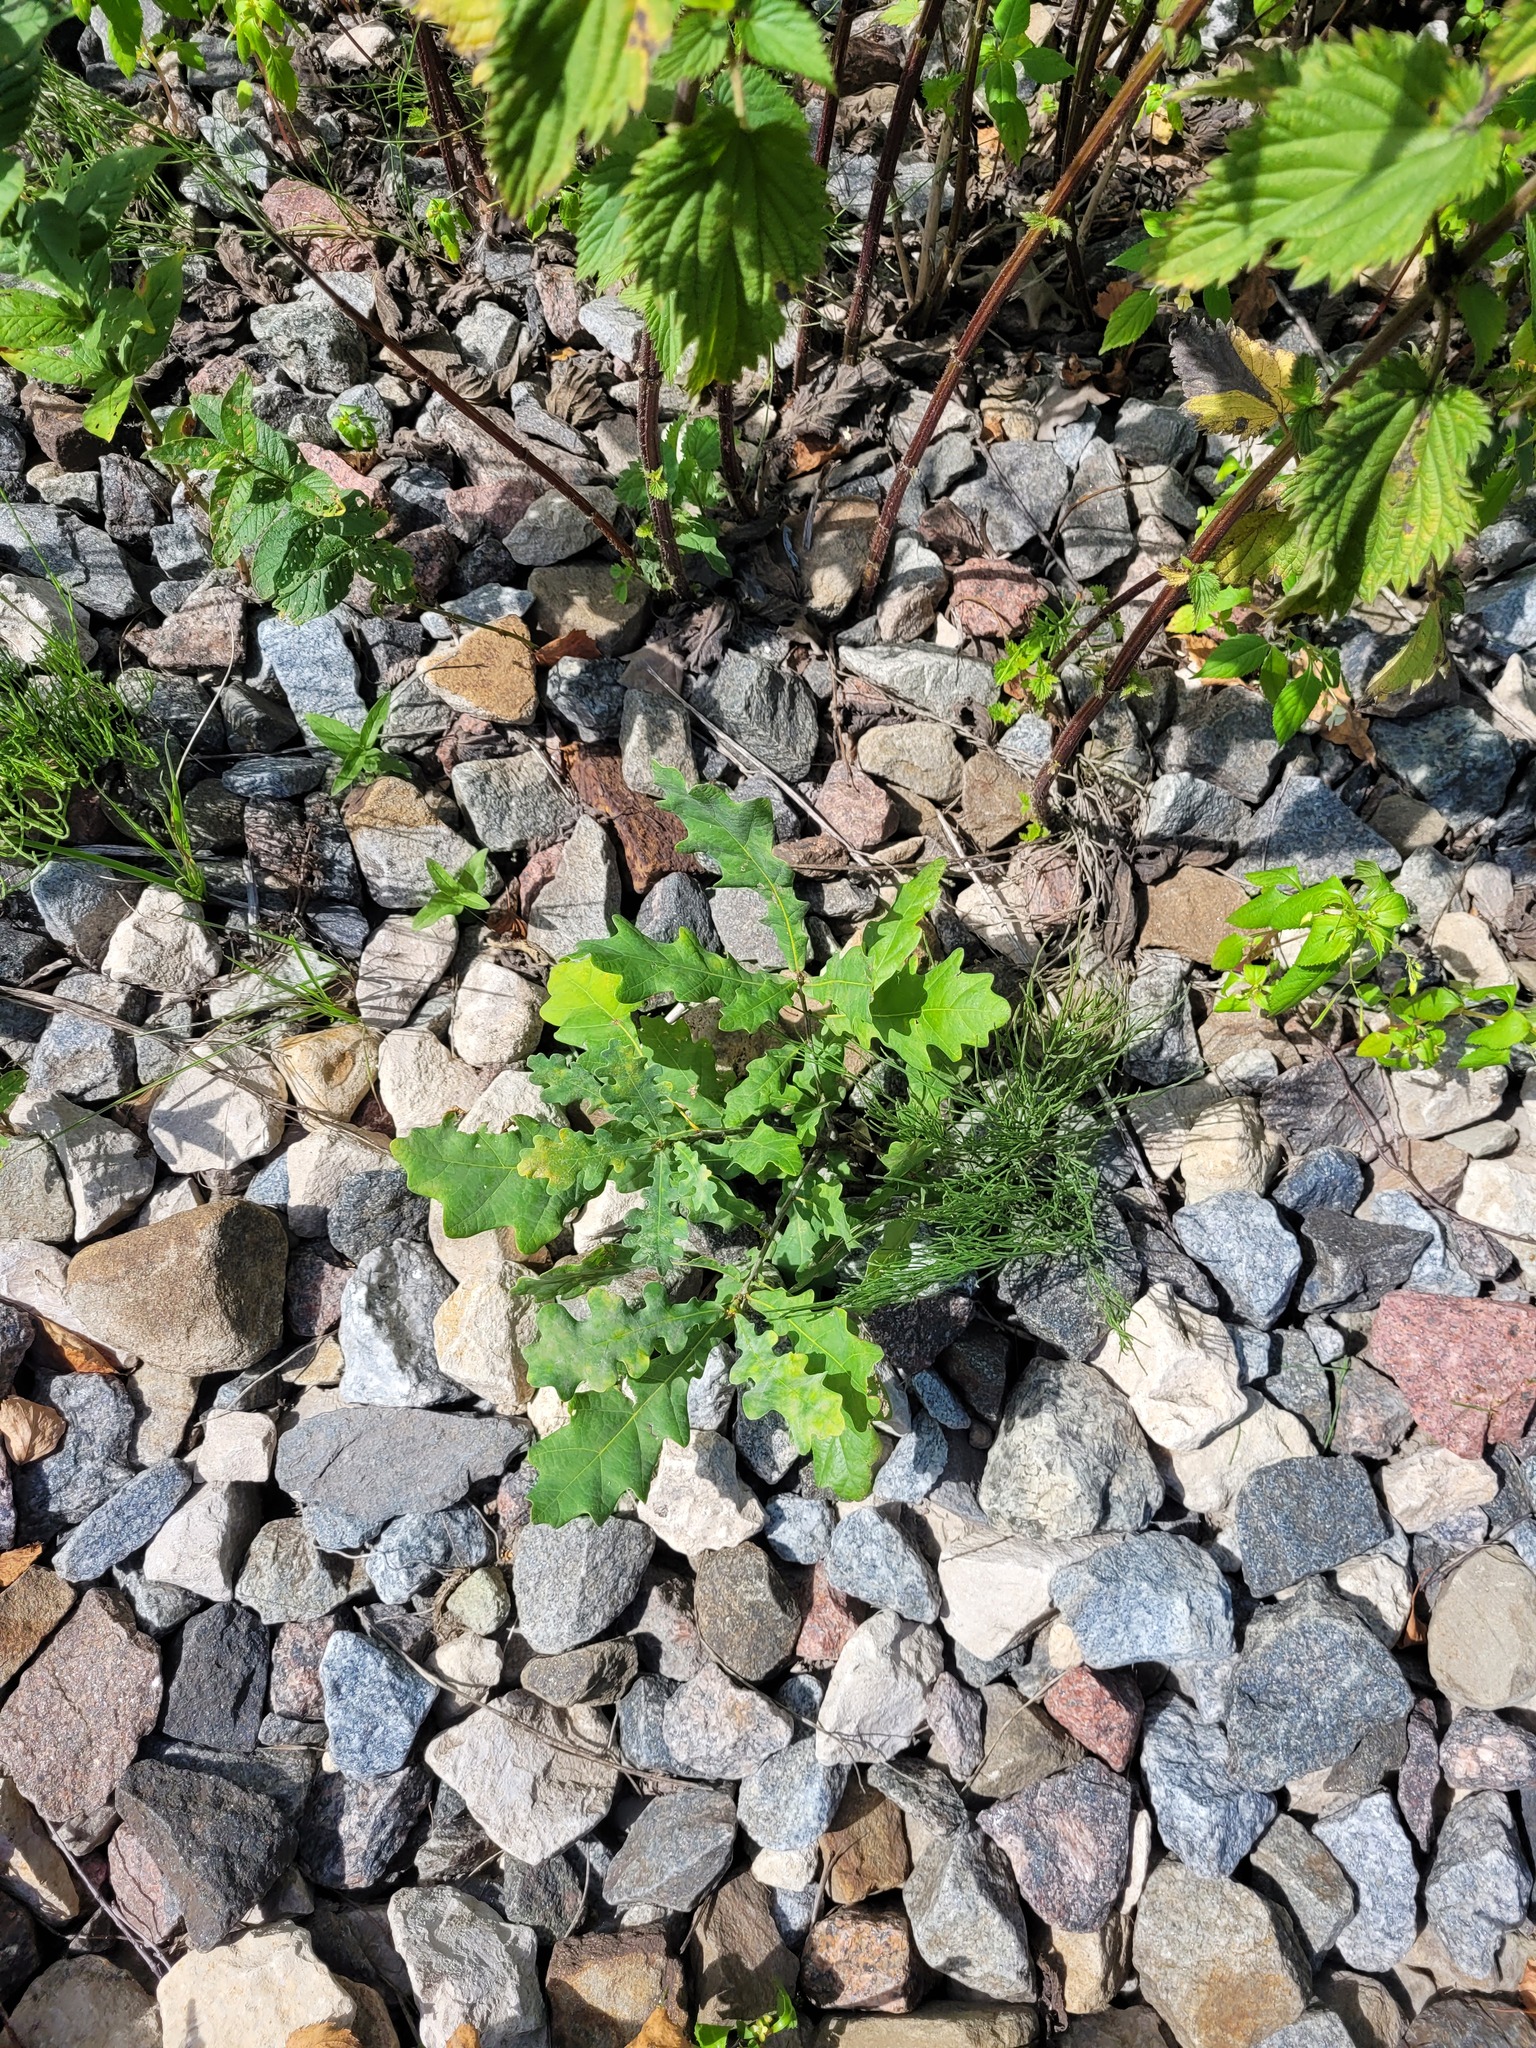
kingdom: Plantae
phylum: Tracheophyta
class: Magnoliopsida
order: Fagales
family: Fagaceae
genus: Quercus
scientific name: Quercus robur
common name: Pedunculate oak
